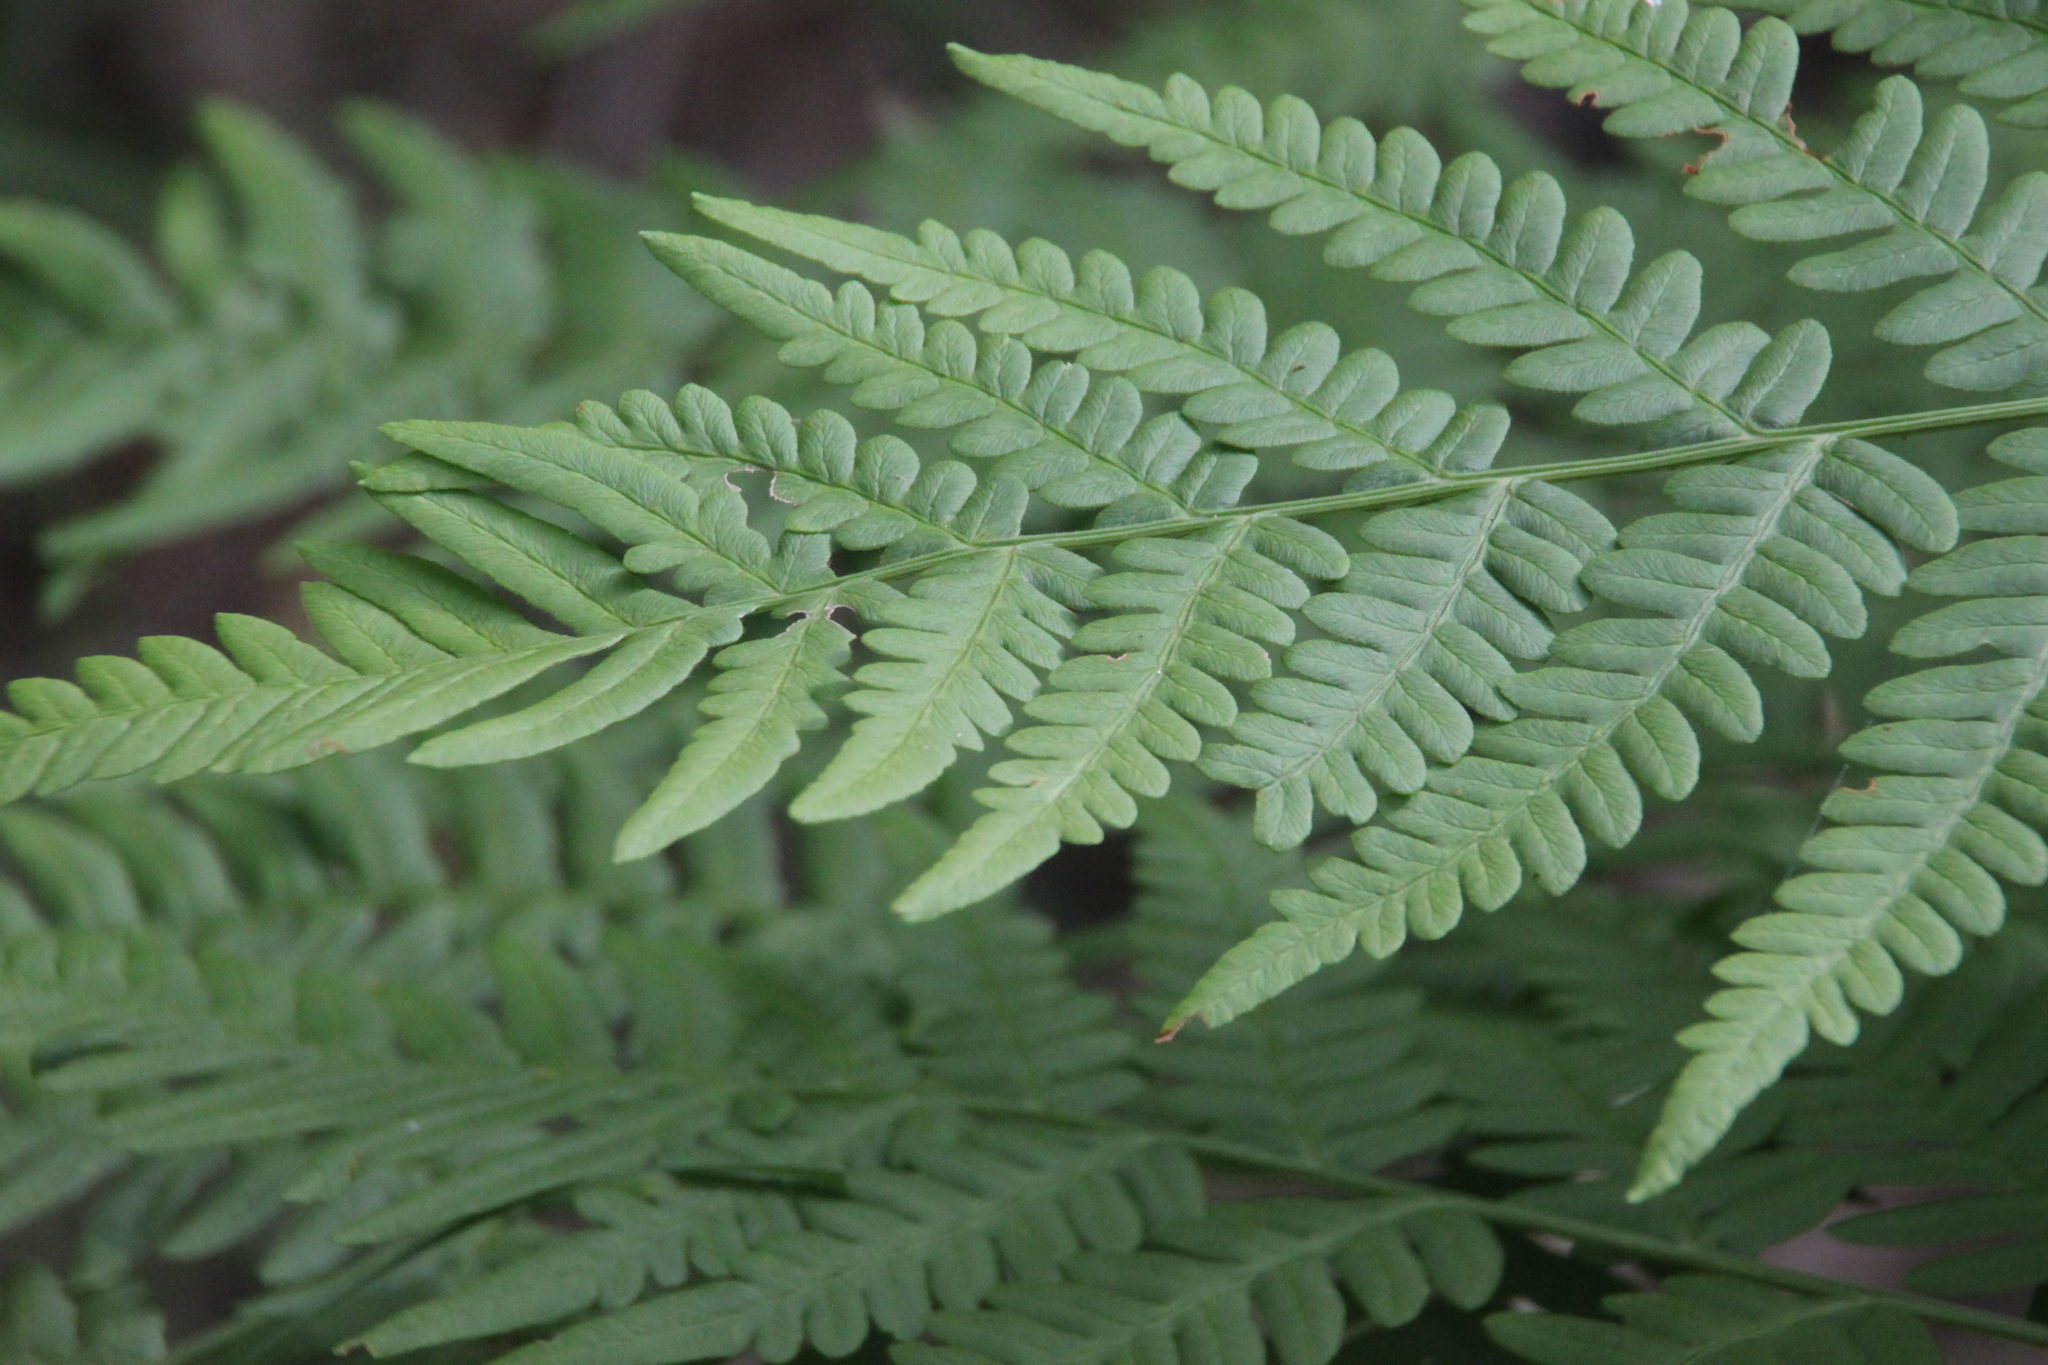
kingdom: Plantae
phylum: Tracheophyta
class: Polypodiopsida
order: Polypodiales
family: Dennstaedtiaceae
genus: Pteridium
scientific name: Pteridium aquilinum
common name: Bracken
